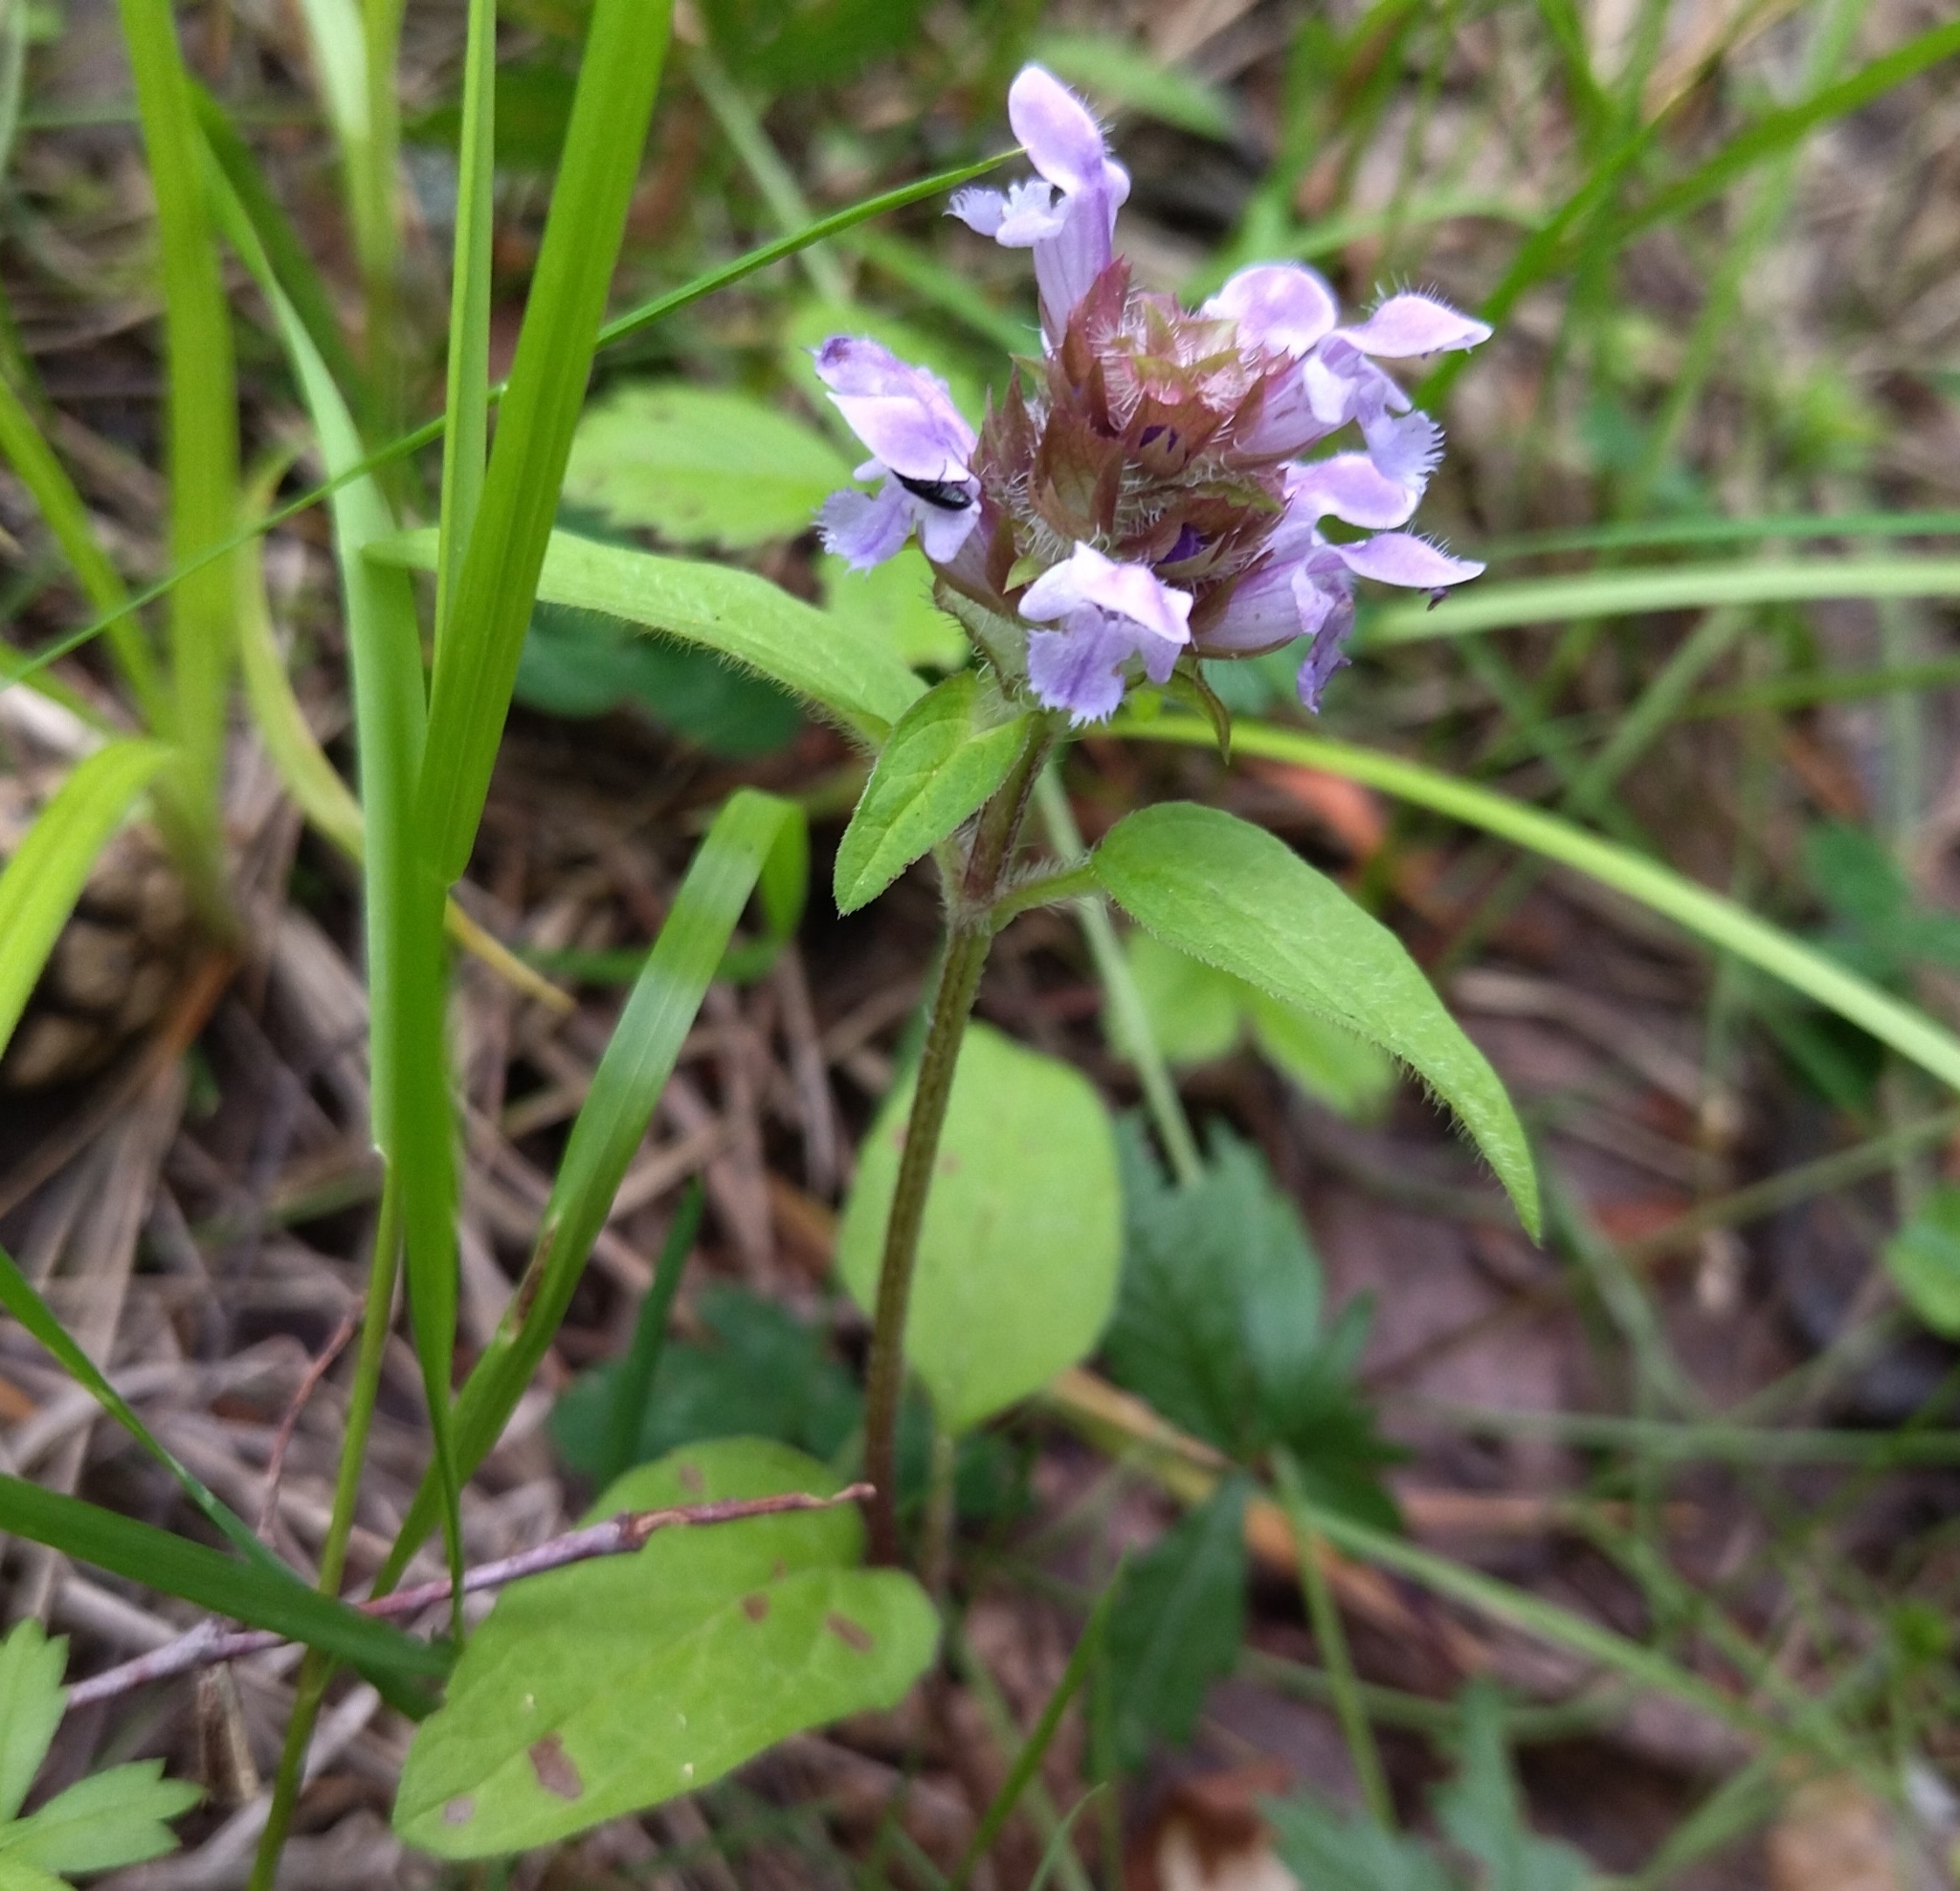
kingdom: Plantae
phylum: Tracheophyta
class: Magnoliopsida
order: Lamiales
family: Lamiaceae
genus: Prunella
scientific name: Prunella vulgaris
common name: Heal-all
